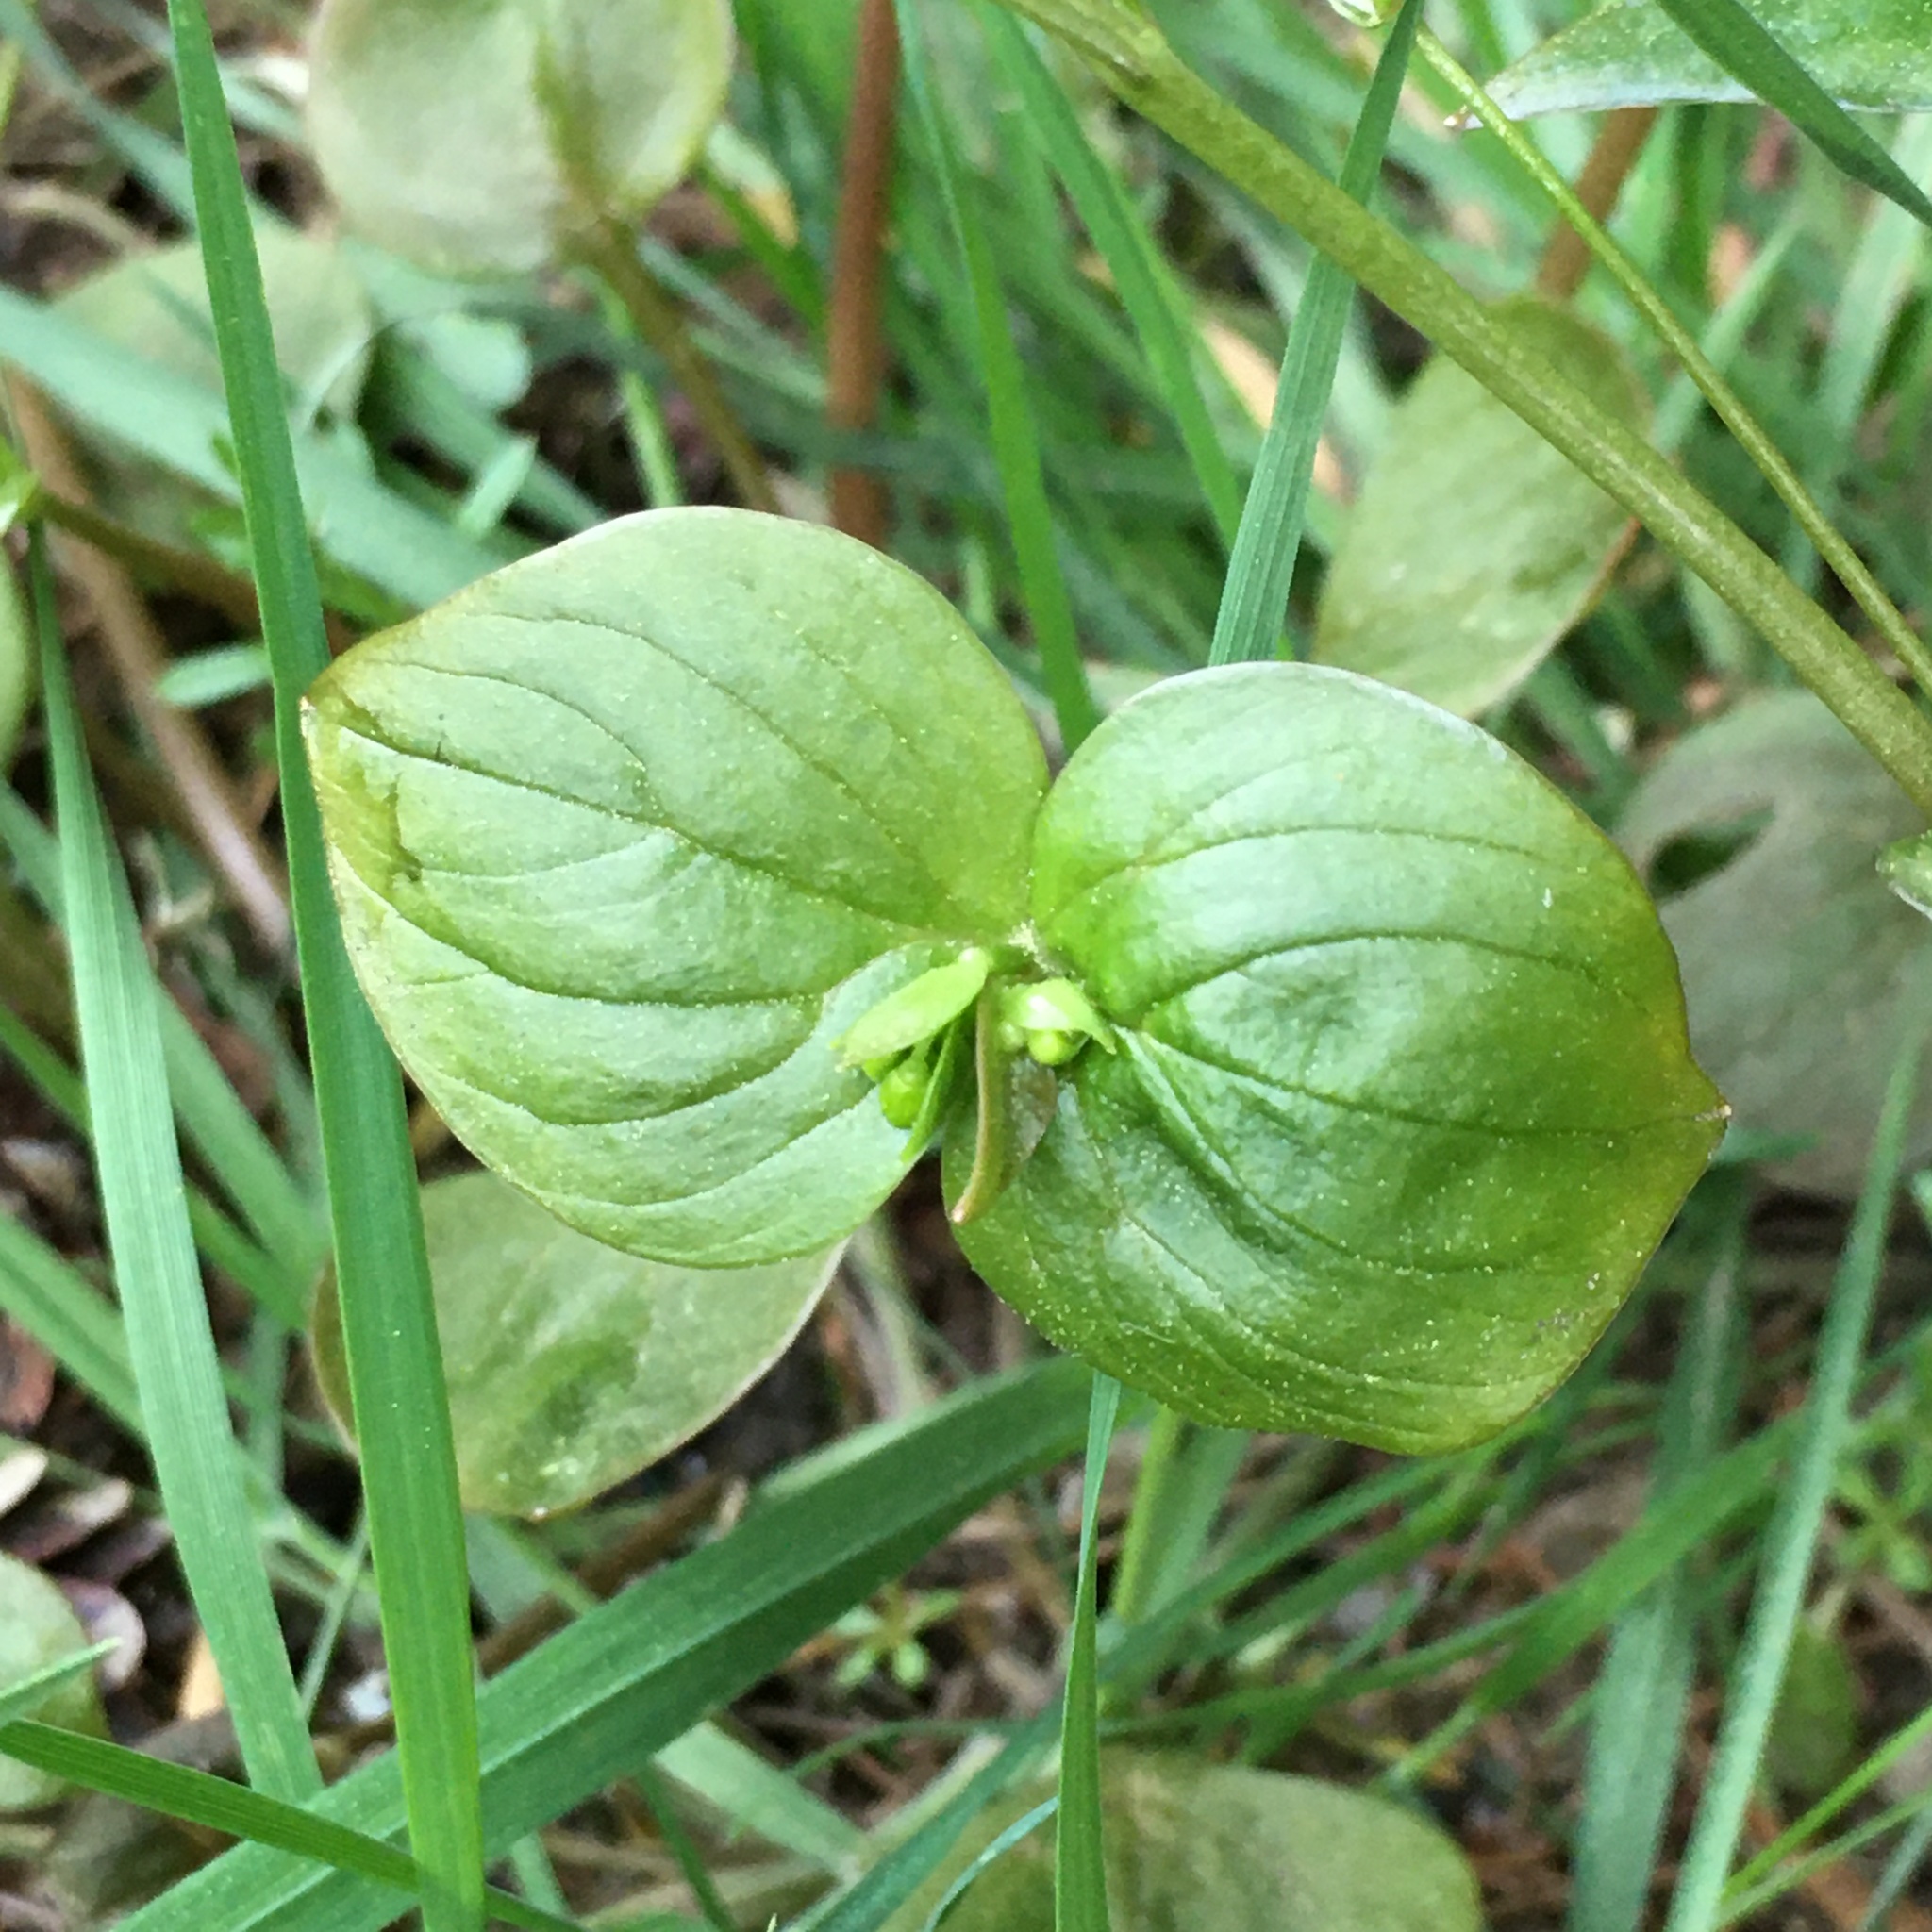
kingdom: Plantae
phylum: Tracheophyta
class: Magnoliopsida
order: Caryophyllales
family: Montiaceae
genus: Claytonia
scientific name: Claytonia sibirica
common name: Pink purslane
